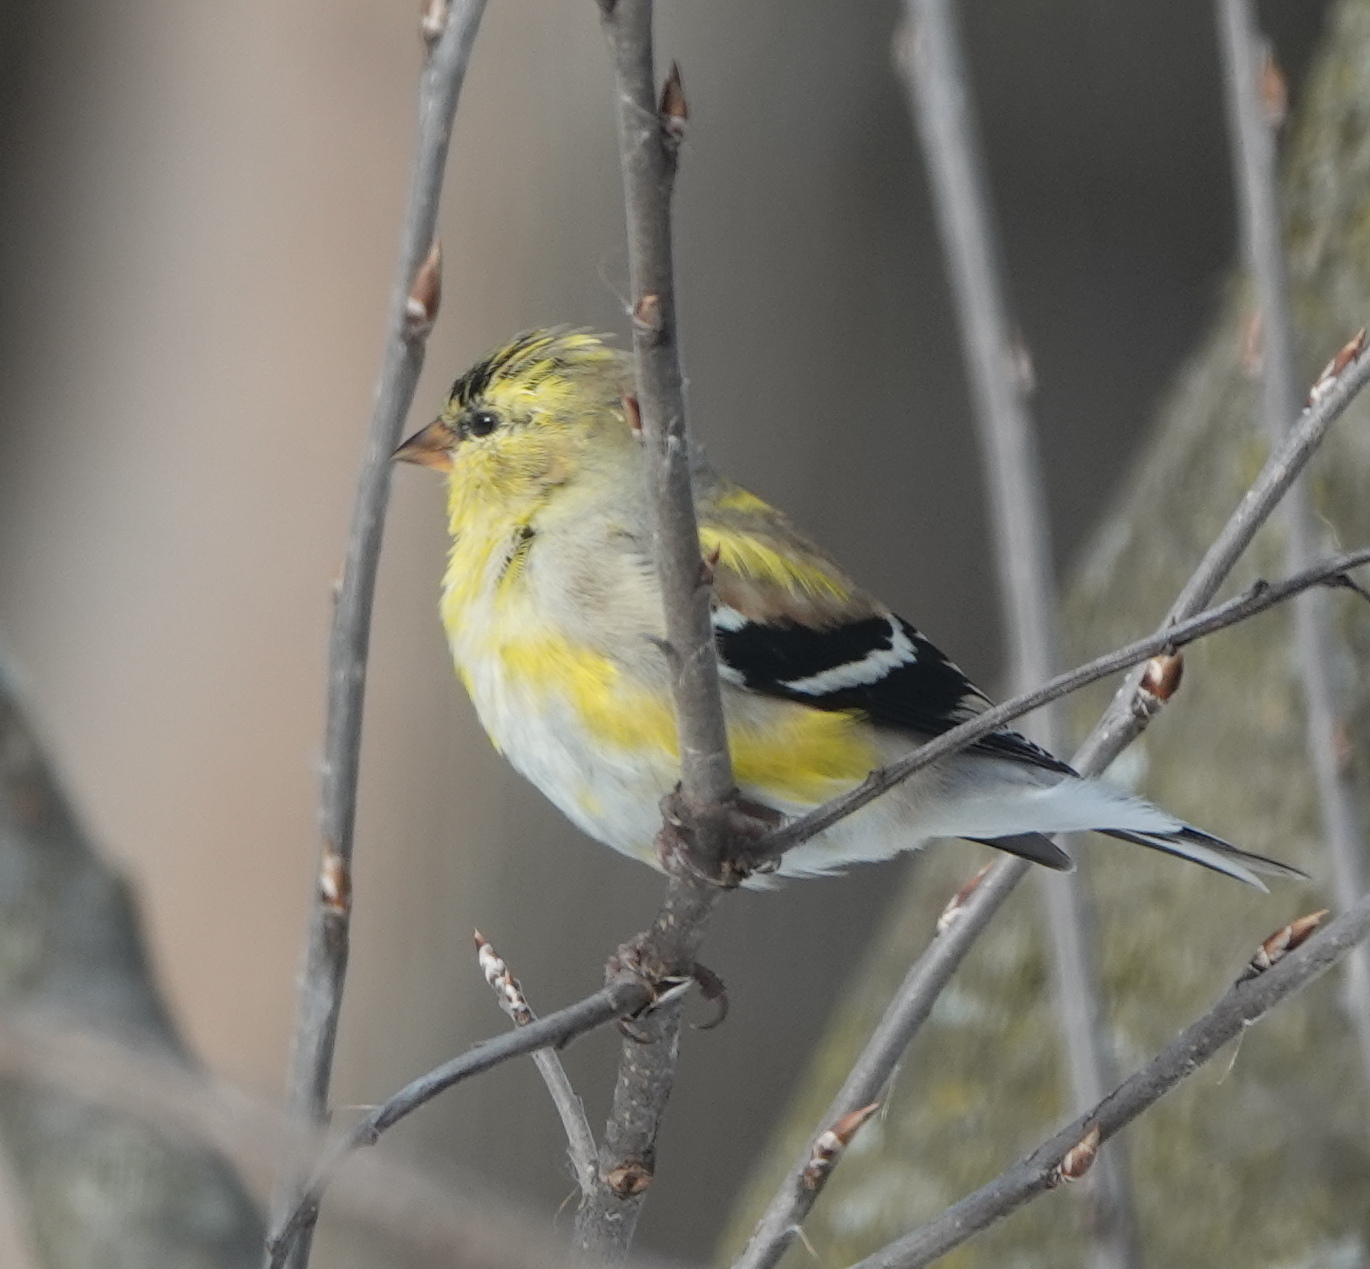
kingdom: Animalia
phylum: Chordata
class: Aves
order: Passeriformes
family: Fringillidae
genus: Spinus
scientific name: Spinus tristis
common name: American goldfinch
